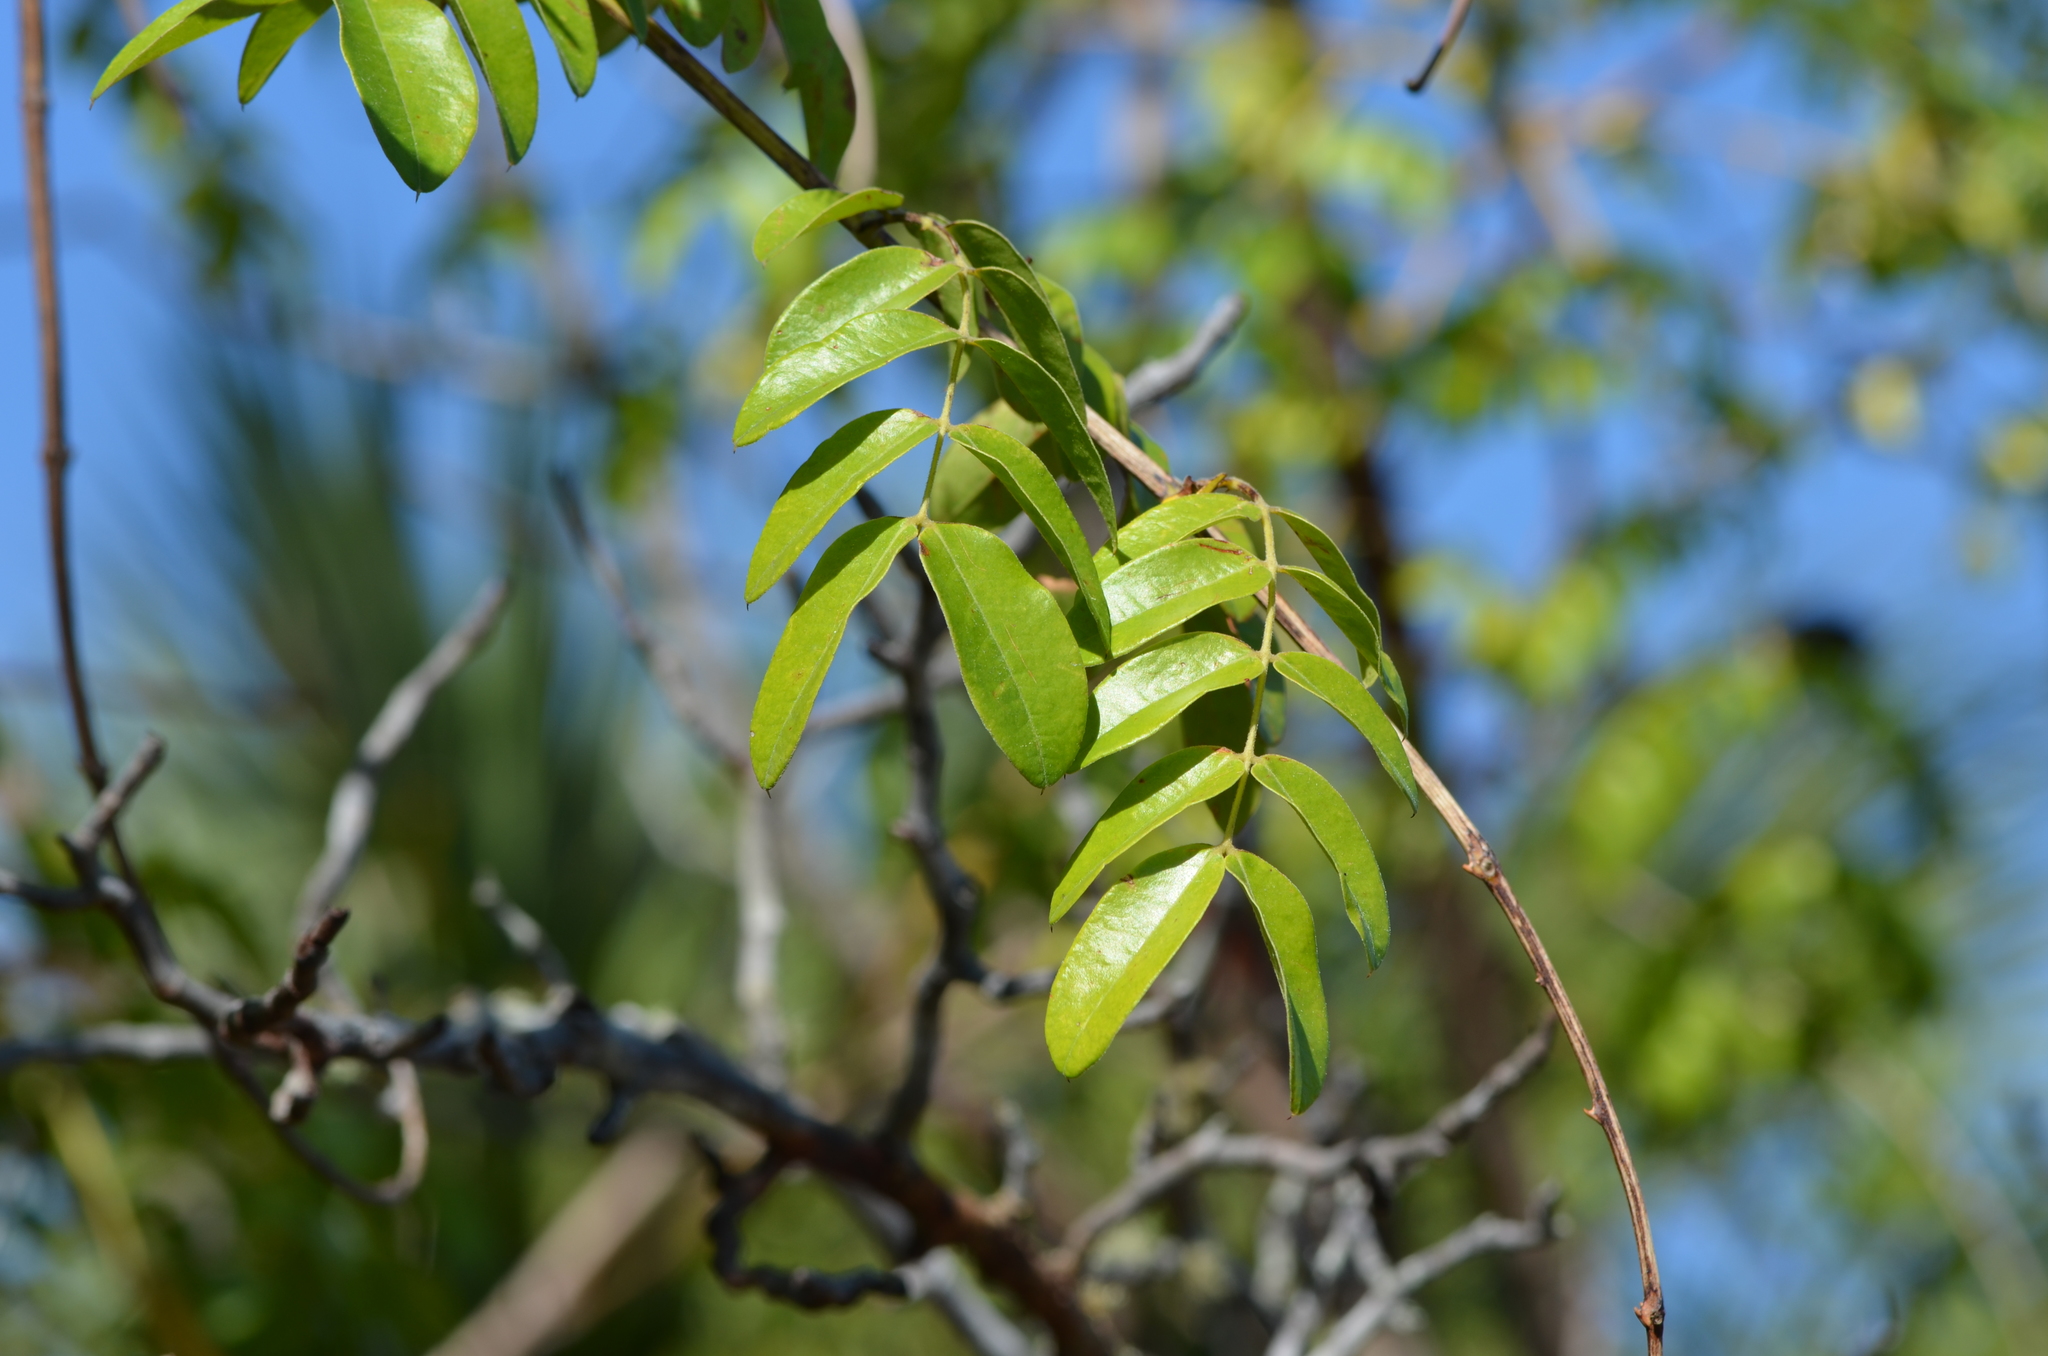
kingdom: Plantae
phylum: Tracheophyta
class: Magnoliopsida
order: Fabales
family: Fabaceae
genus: Guilandina
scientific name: Guilandina bonduc
